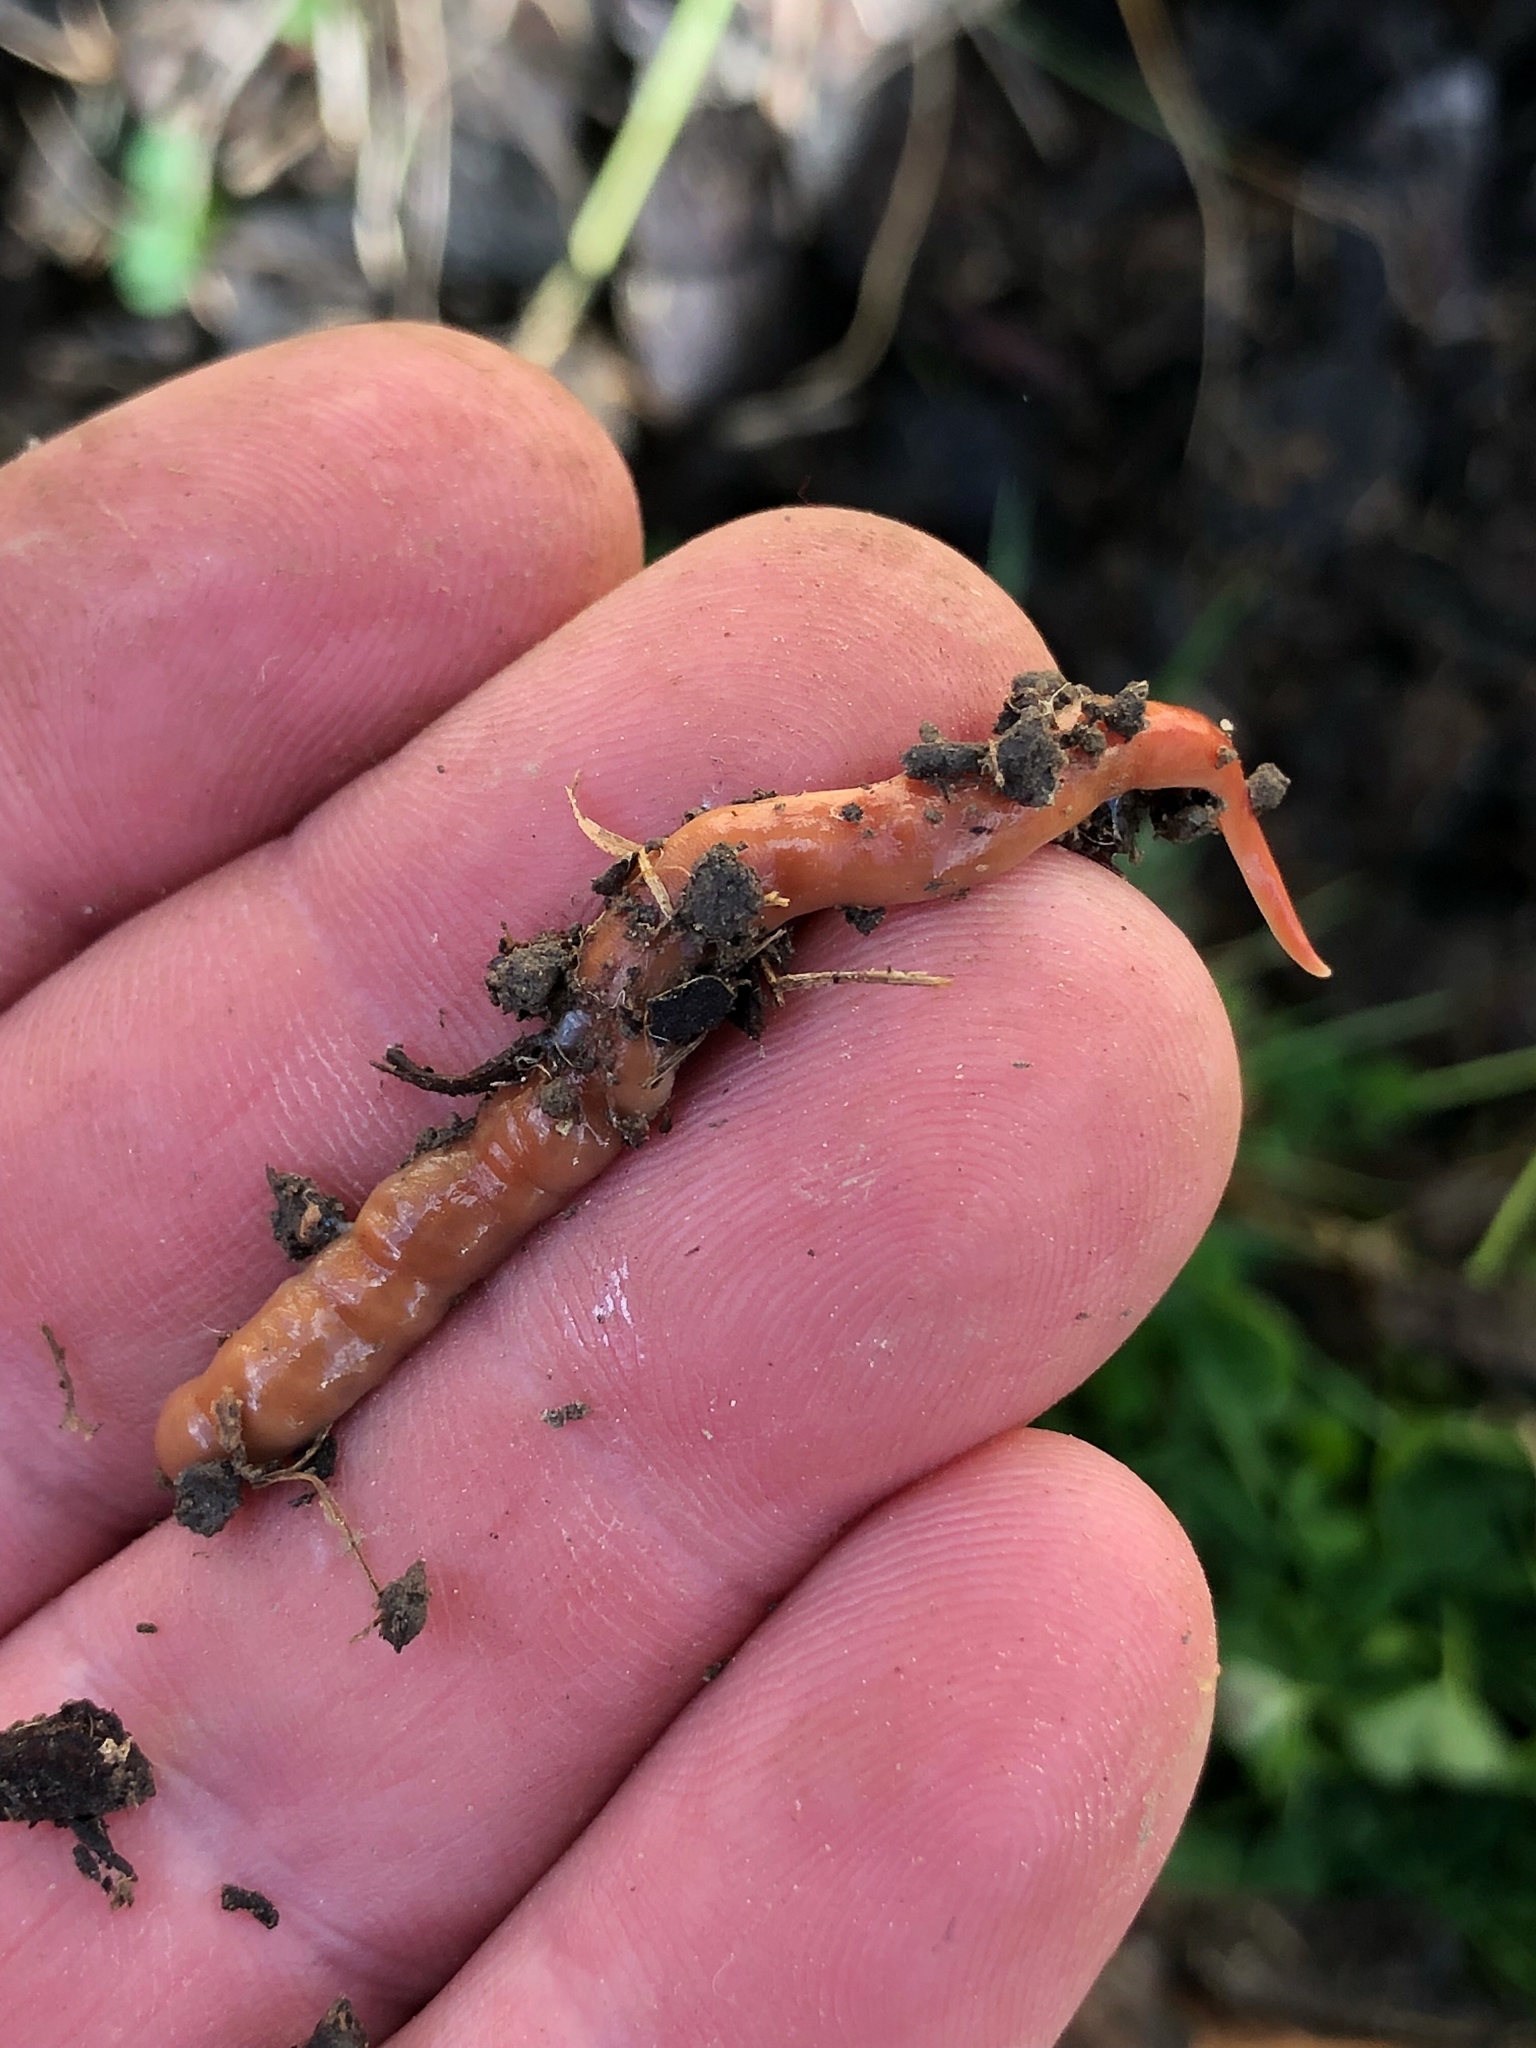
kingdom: Animalia
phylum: Platyhelminthes
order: Tricladida
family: Geoplanidae
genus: Australoplana
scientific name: Australoplana sanguinea
